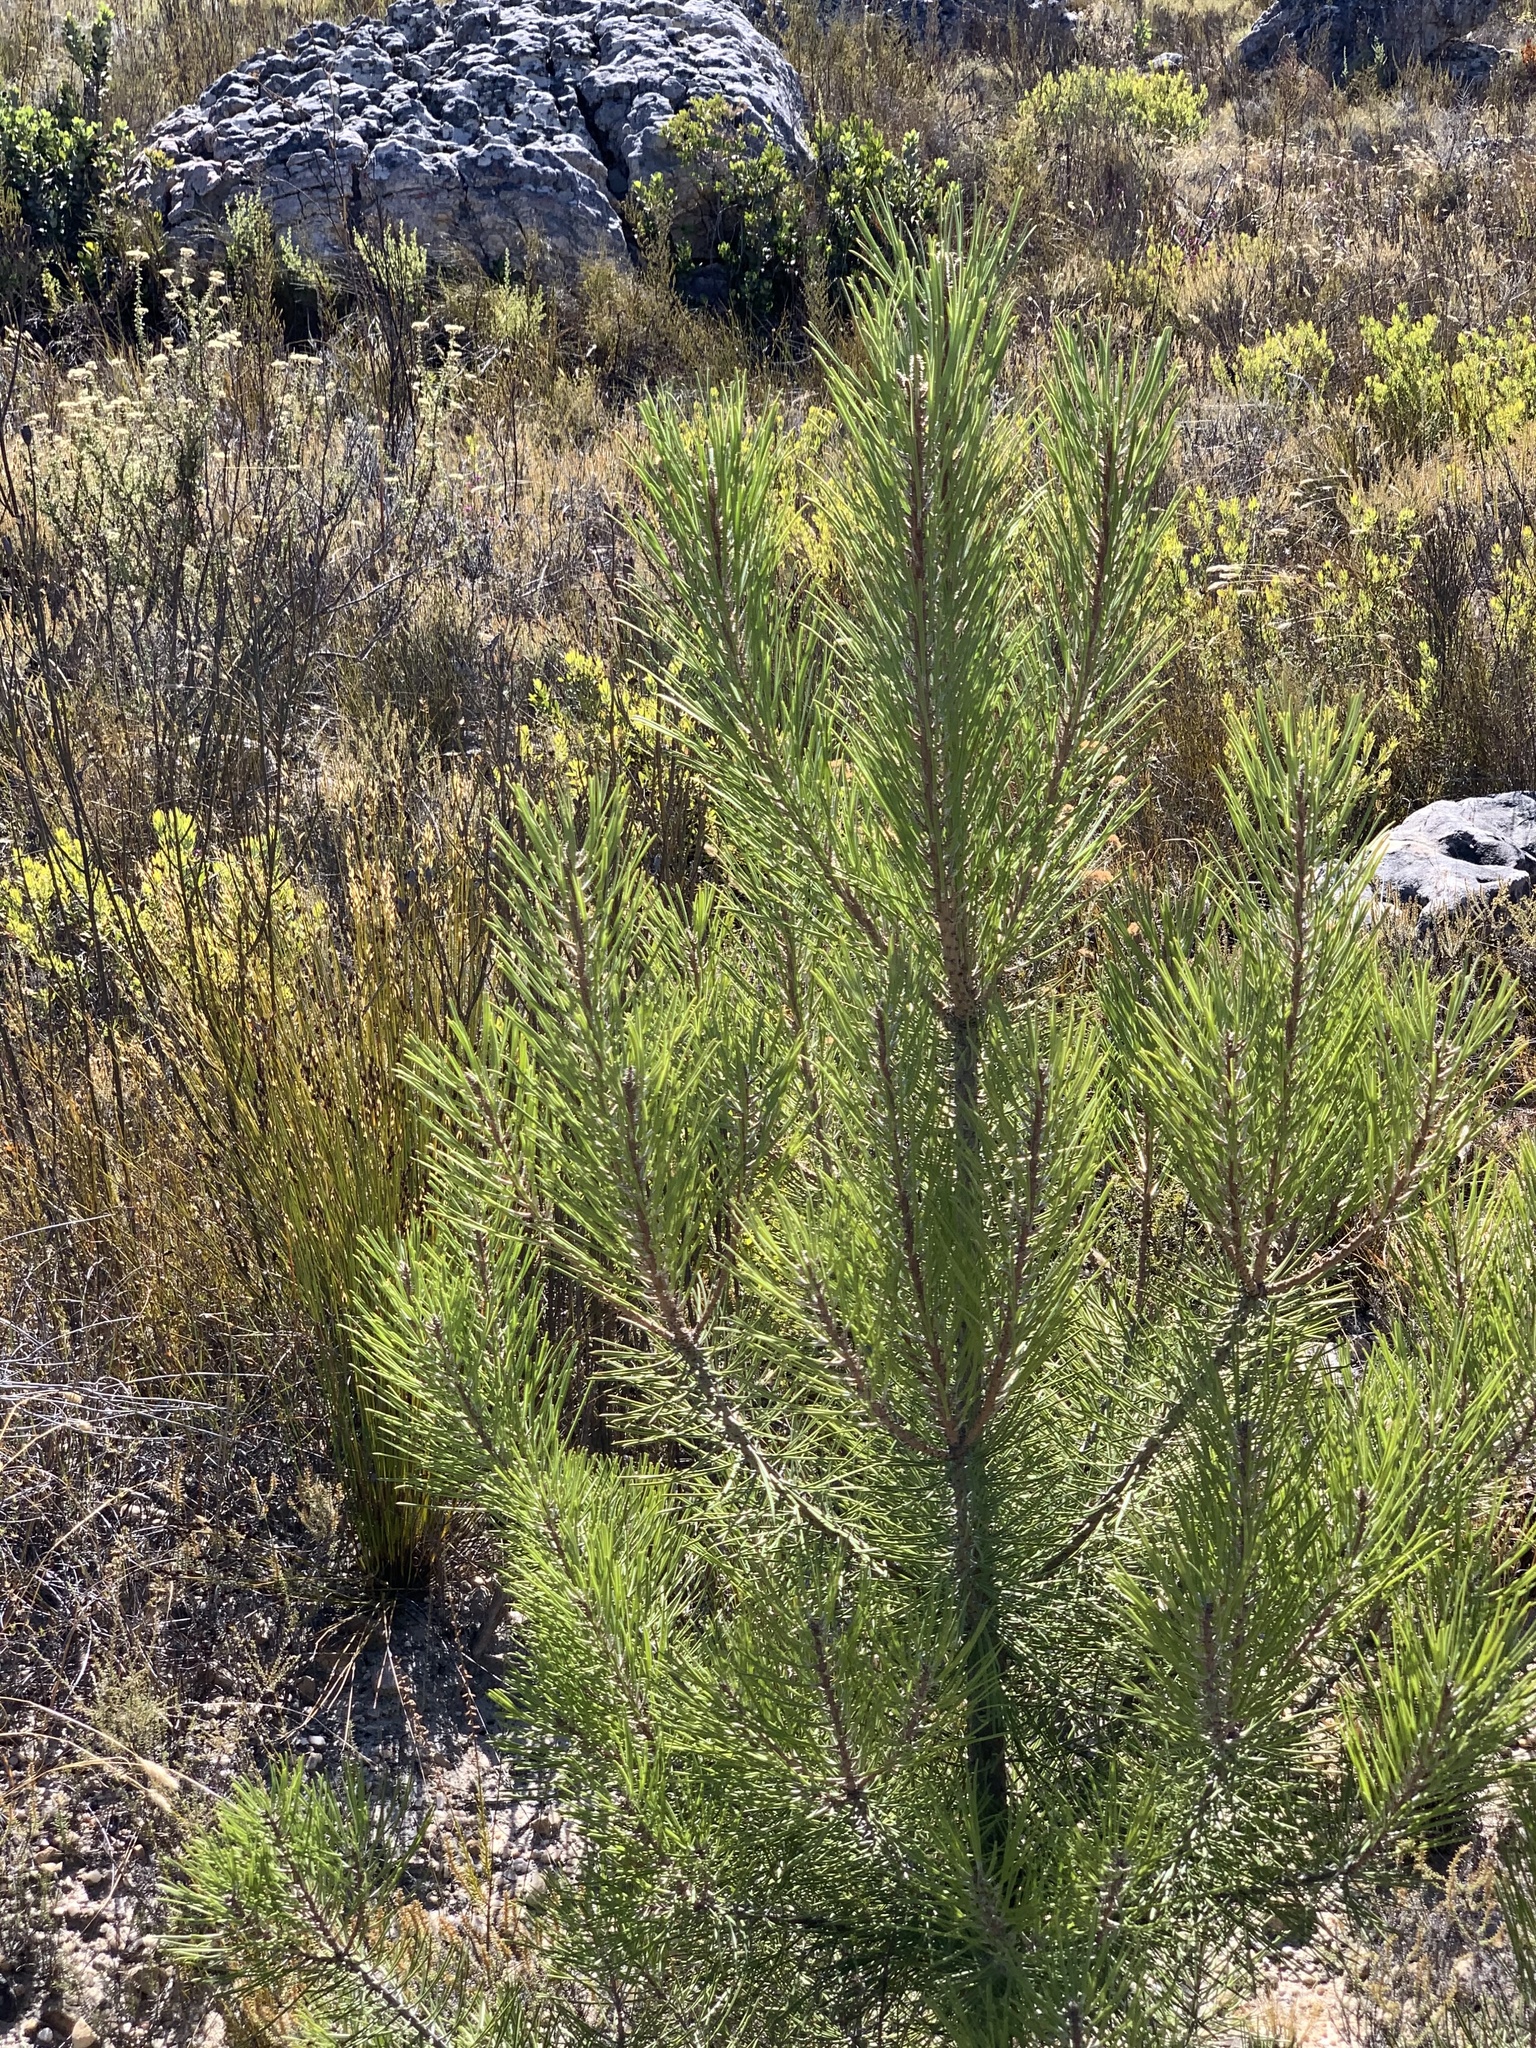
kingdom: Plantae
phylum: Tracheophyta
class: Pinopsida
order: Pinales
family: Pinaceae
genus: Pinus
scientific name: Pinus pinaster
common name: Maritime pine
